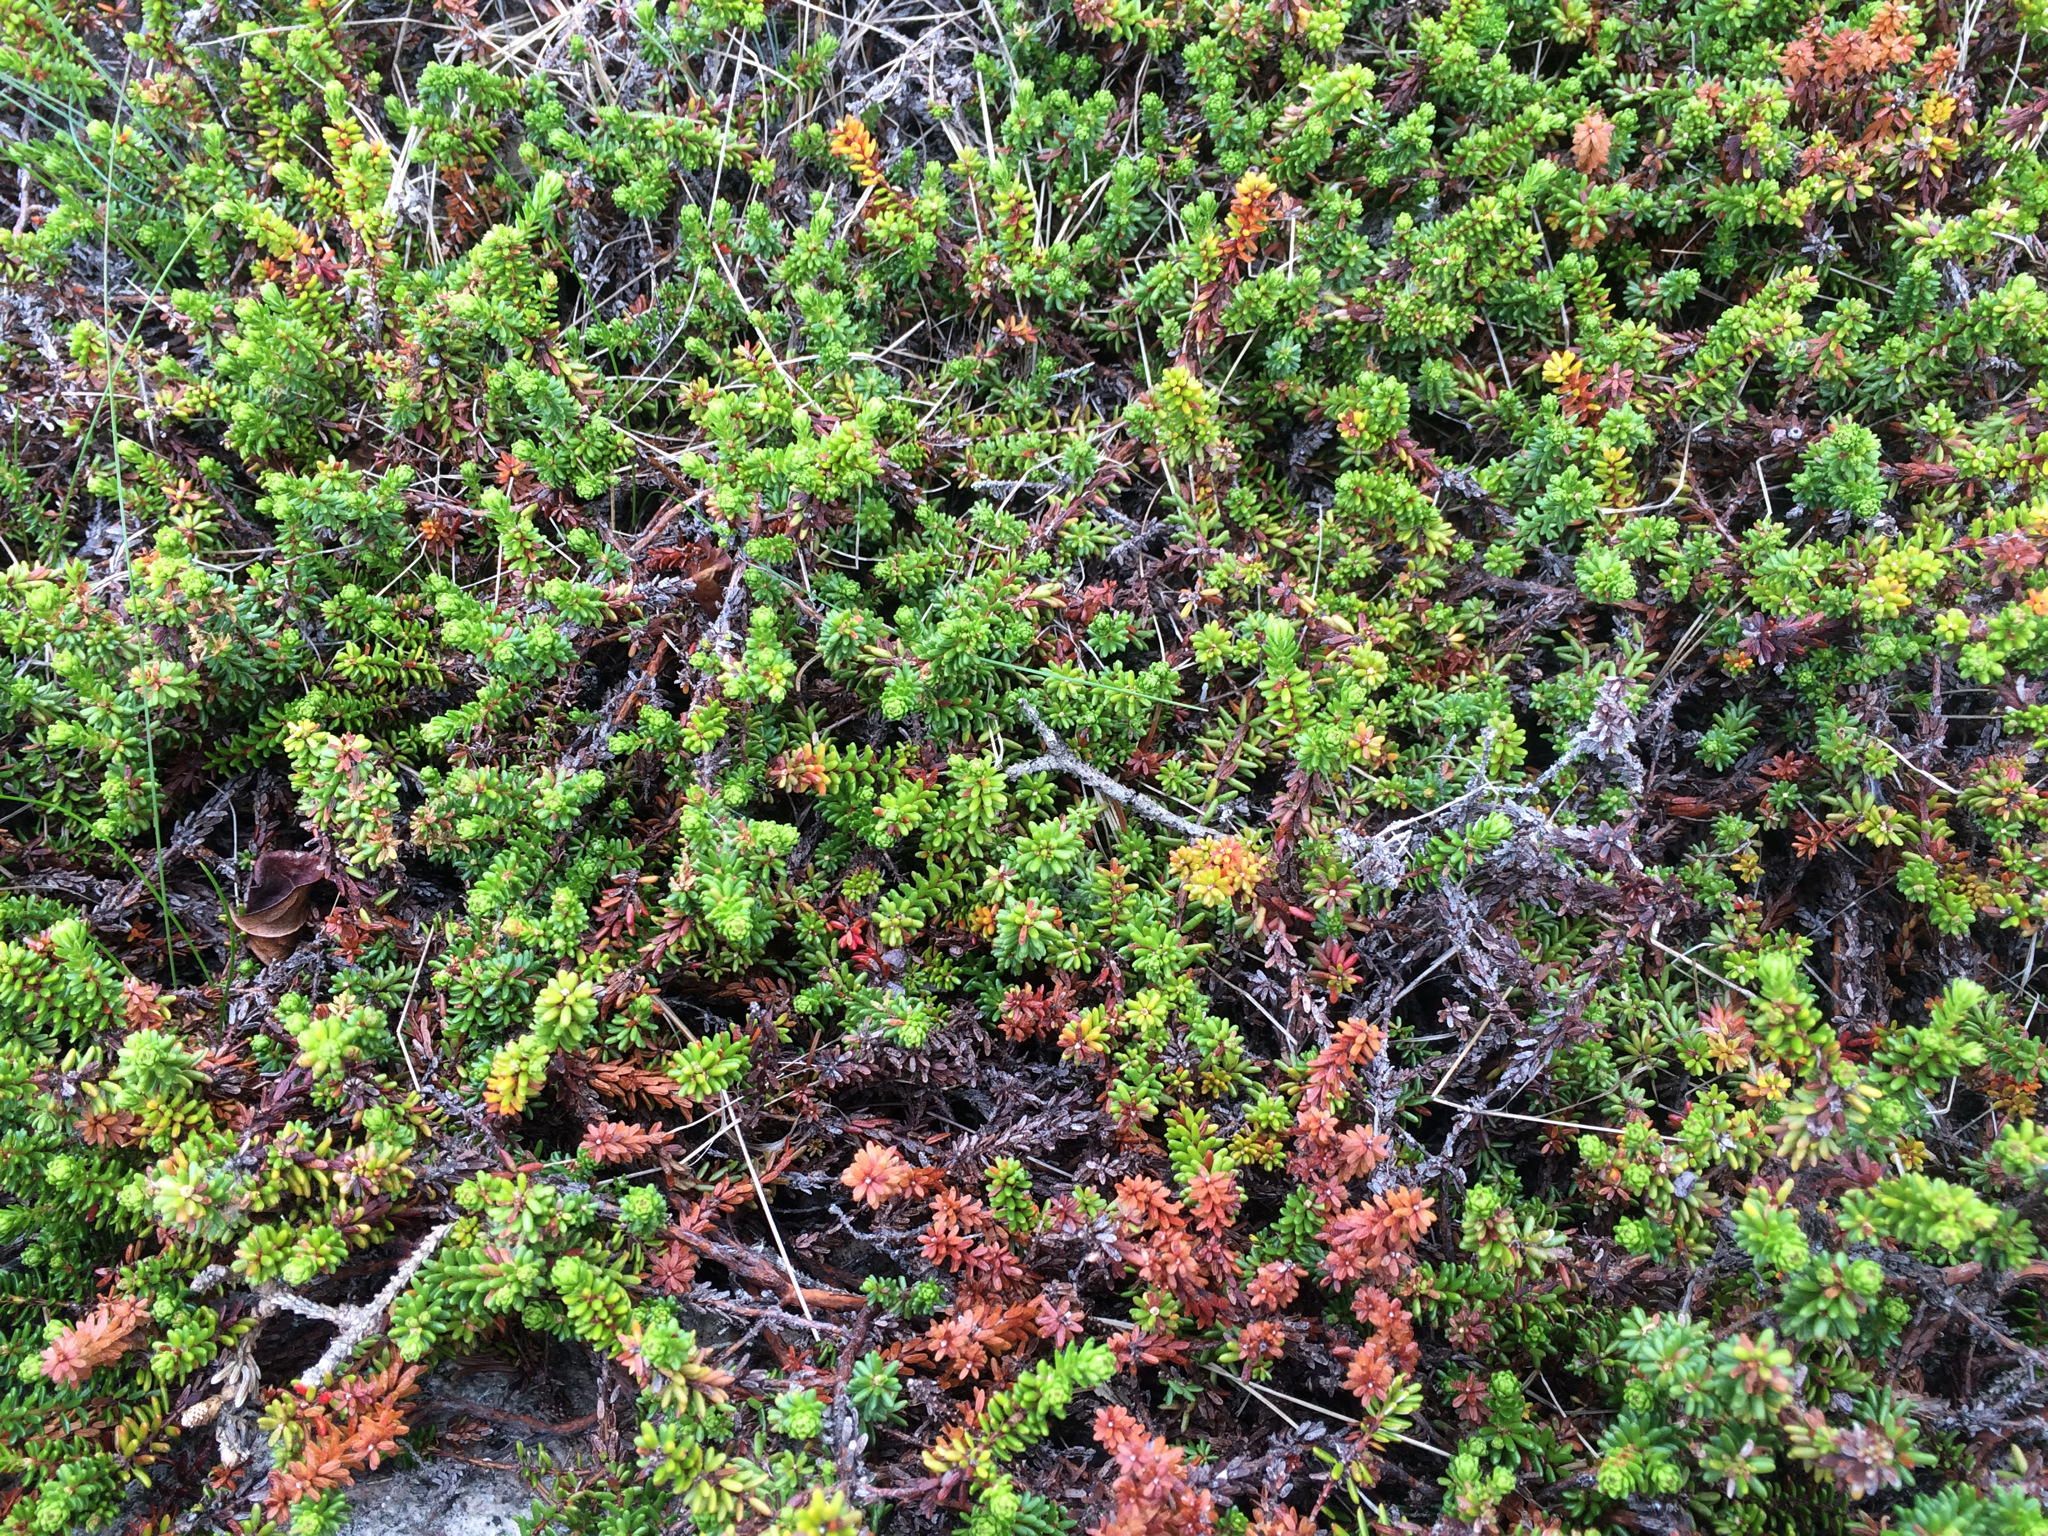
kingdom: Plantae
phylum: Tracheophyta
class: Magnoliopsida
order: Ericales
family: Ericaceae
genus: Empetrum
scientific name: Empetrum nigrum
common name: Black crowberry
